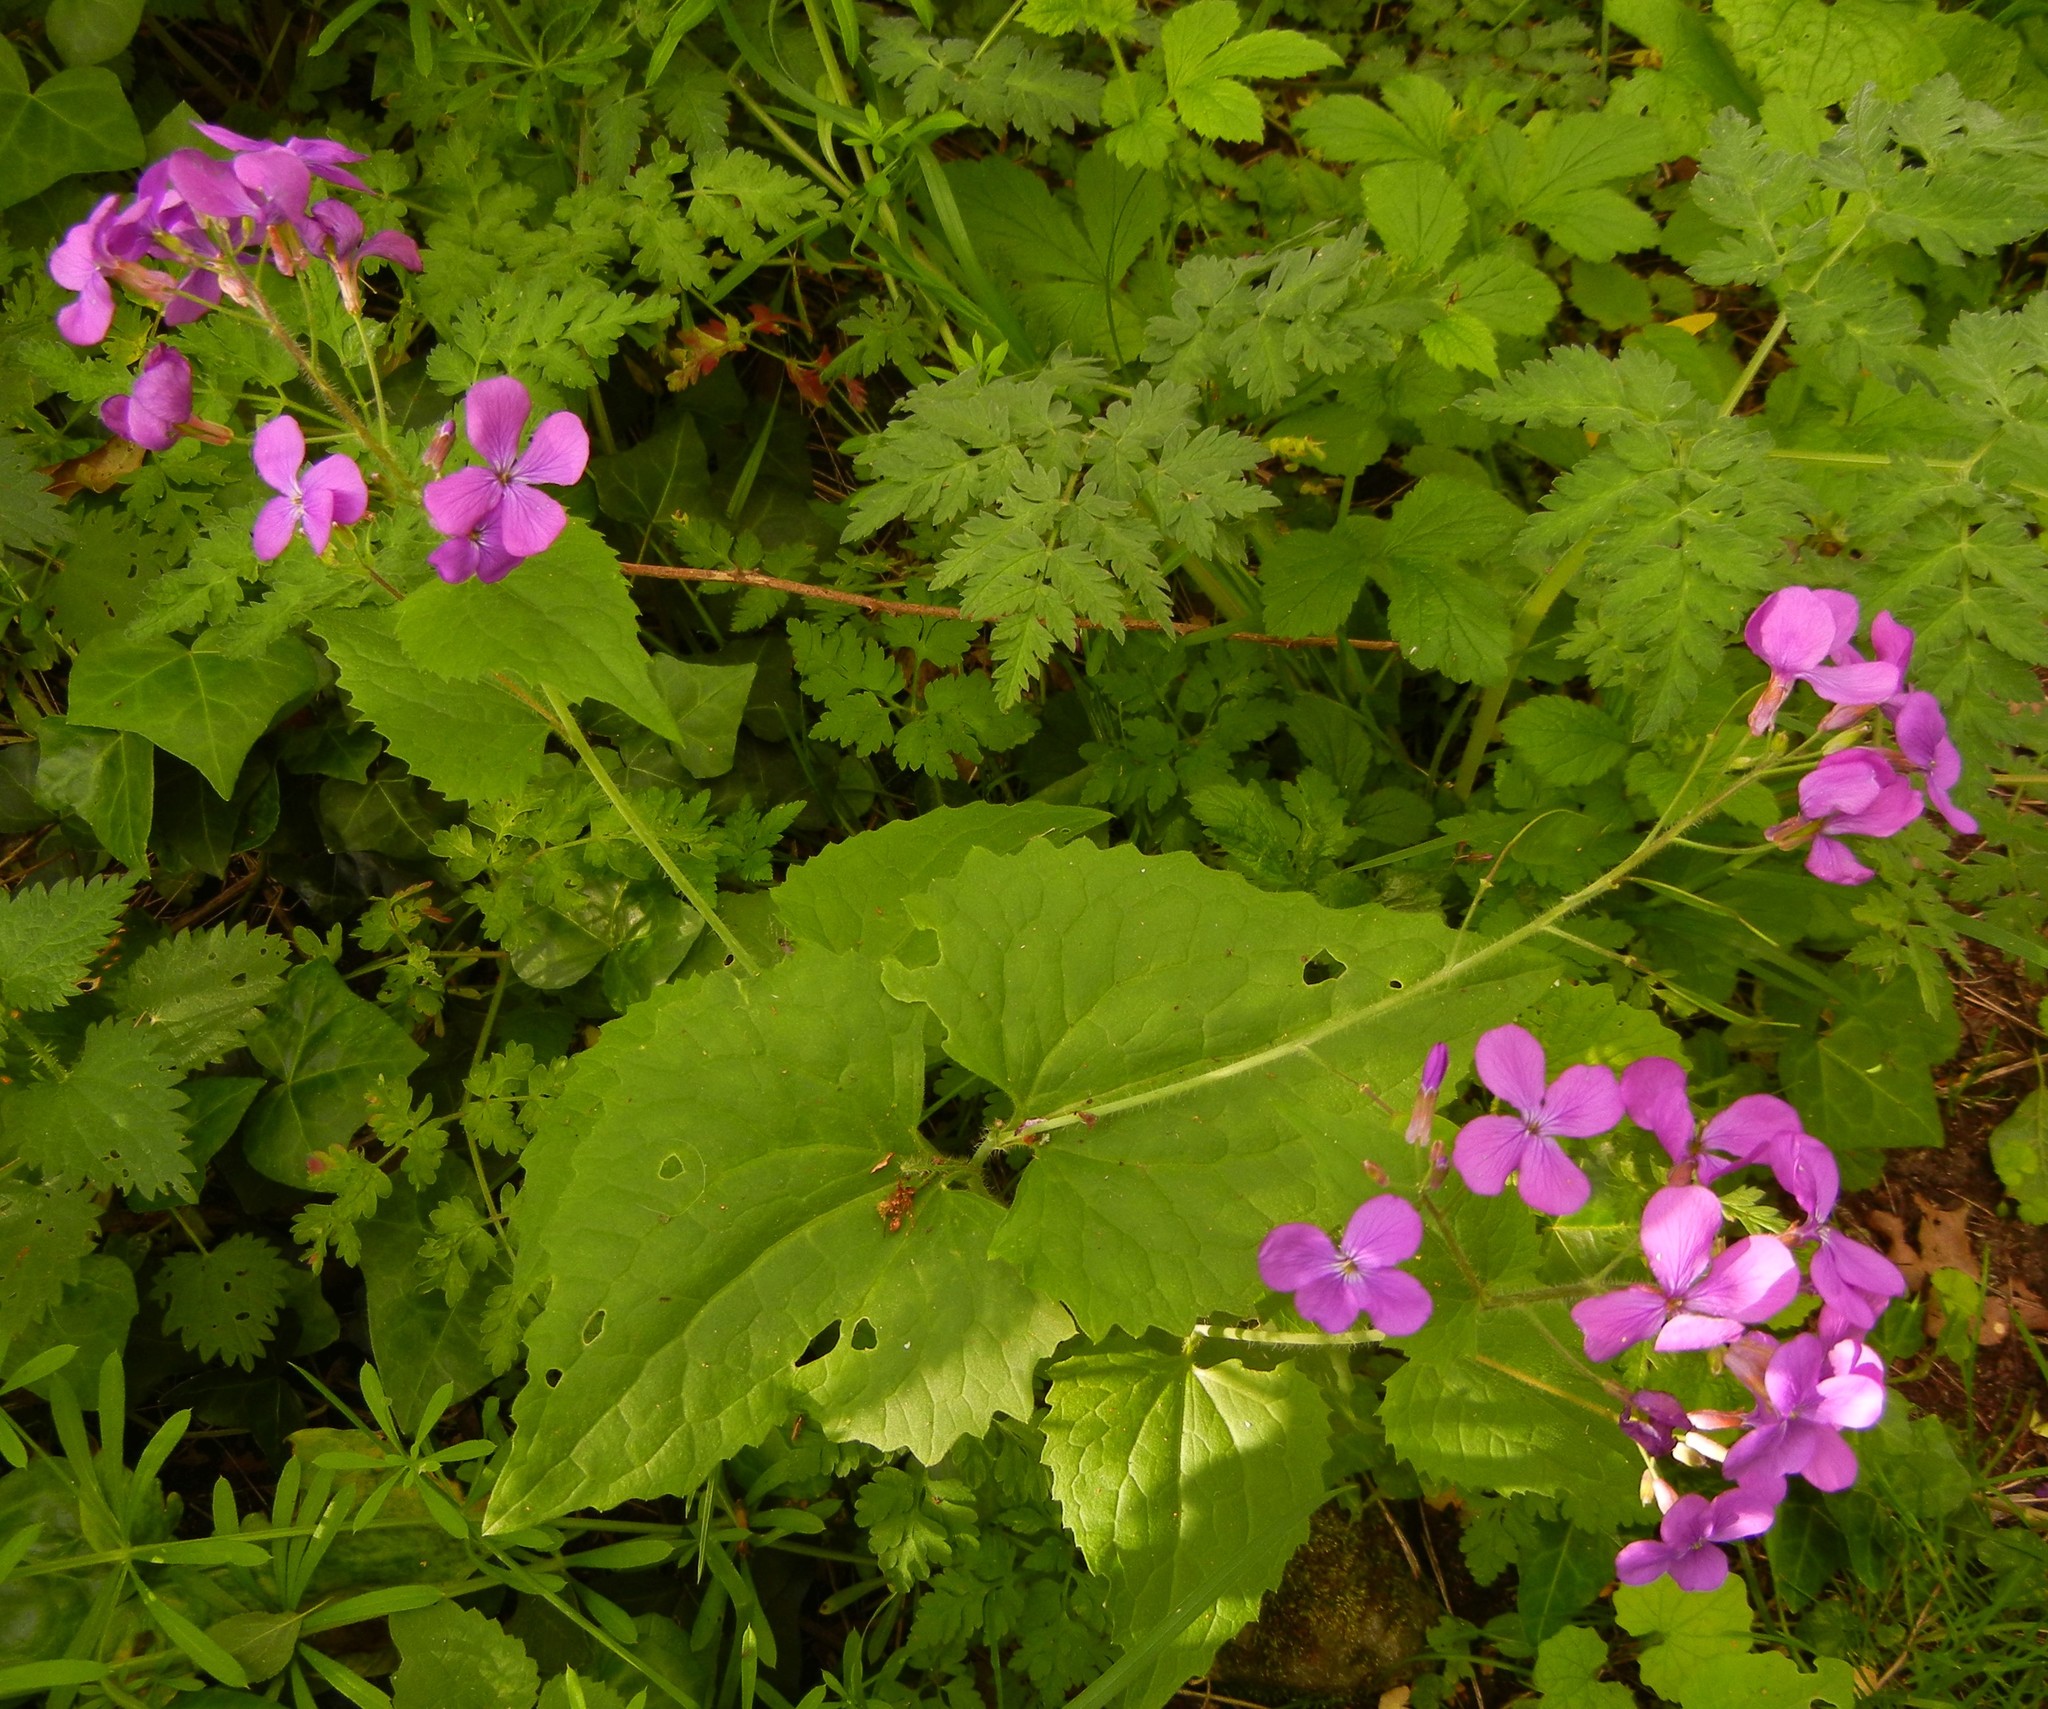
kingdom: Plantae
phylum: Tracheophyta
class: Magnoliopsida
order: Brassicales
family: Brassicaceae
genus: Lunaria
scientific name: Lunaria annua
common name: Honesty
